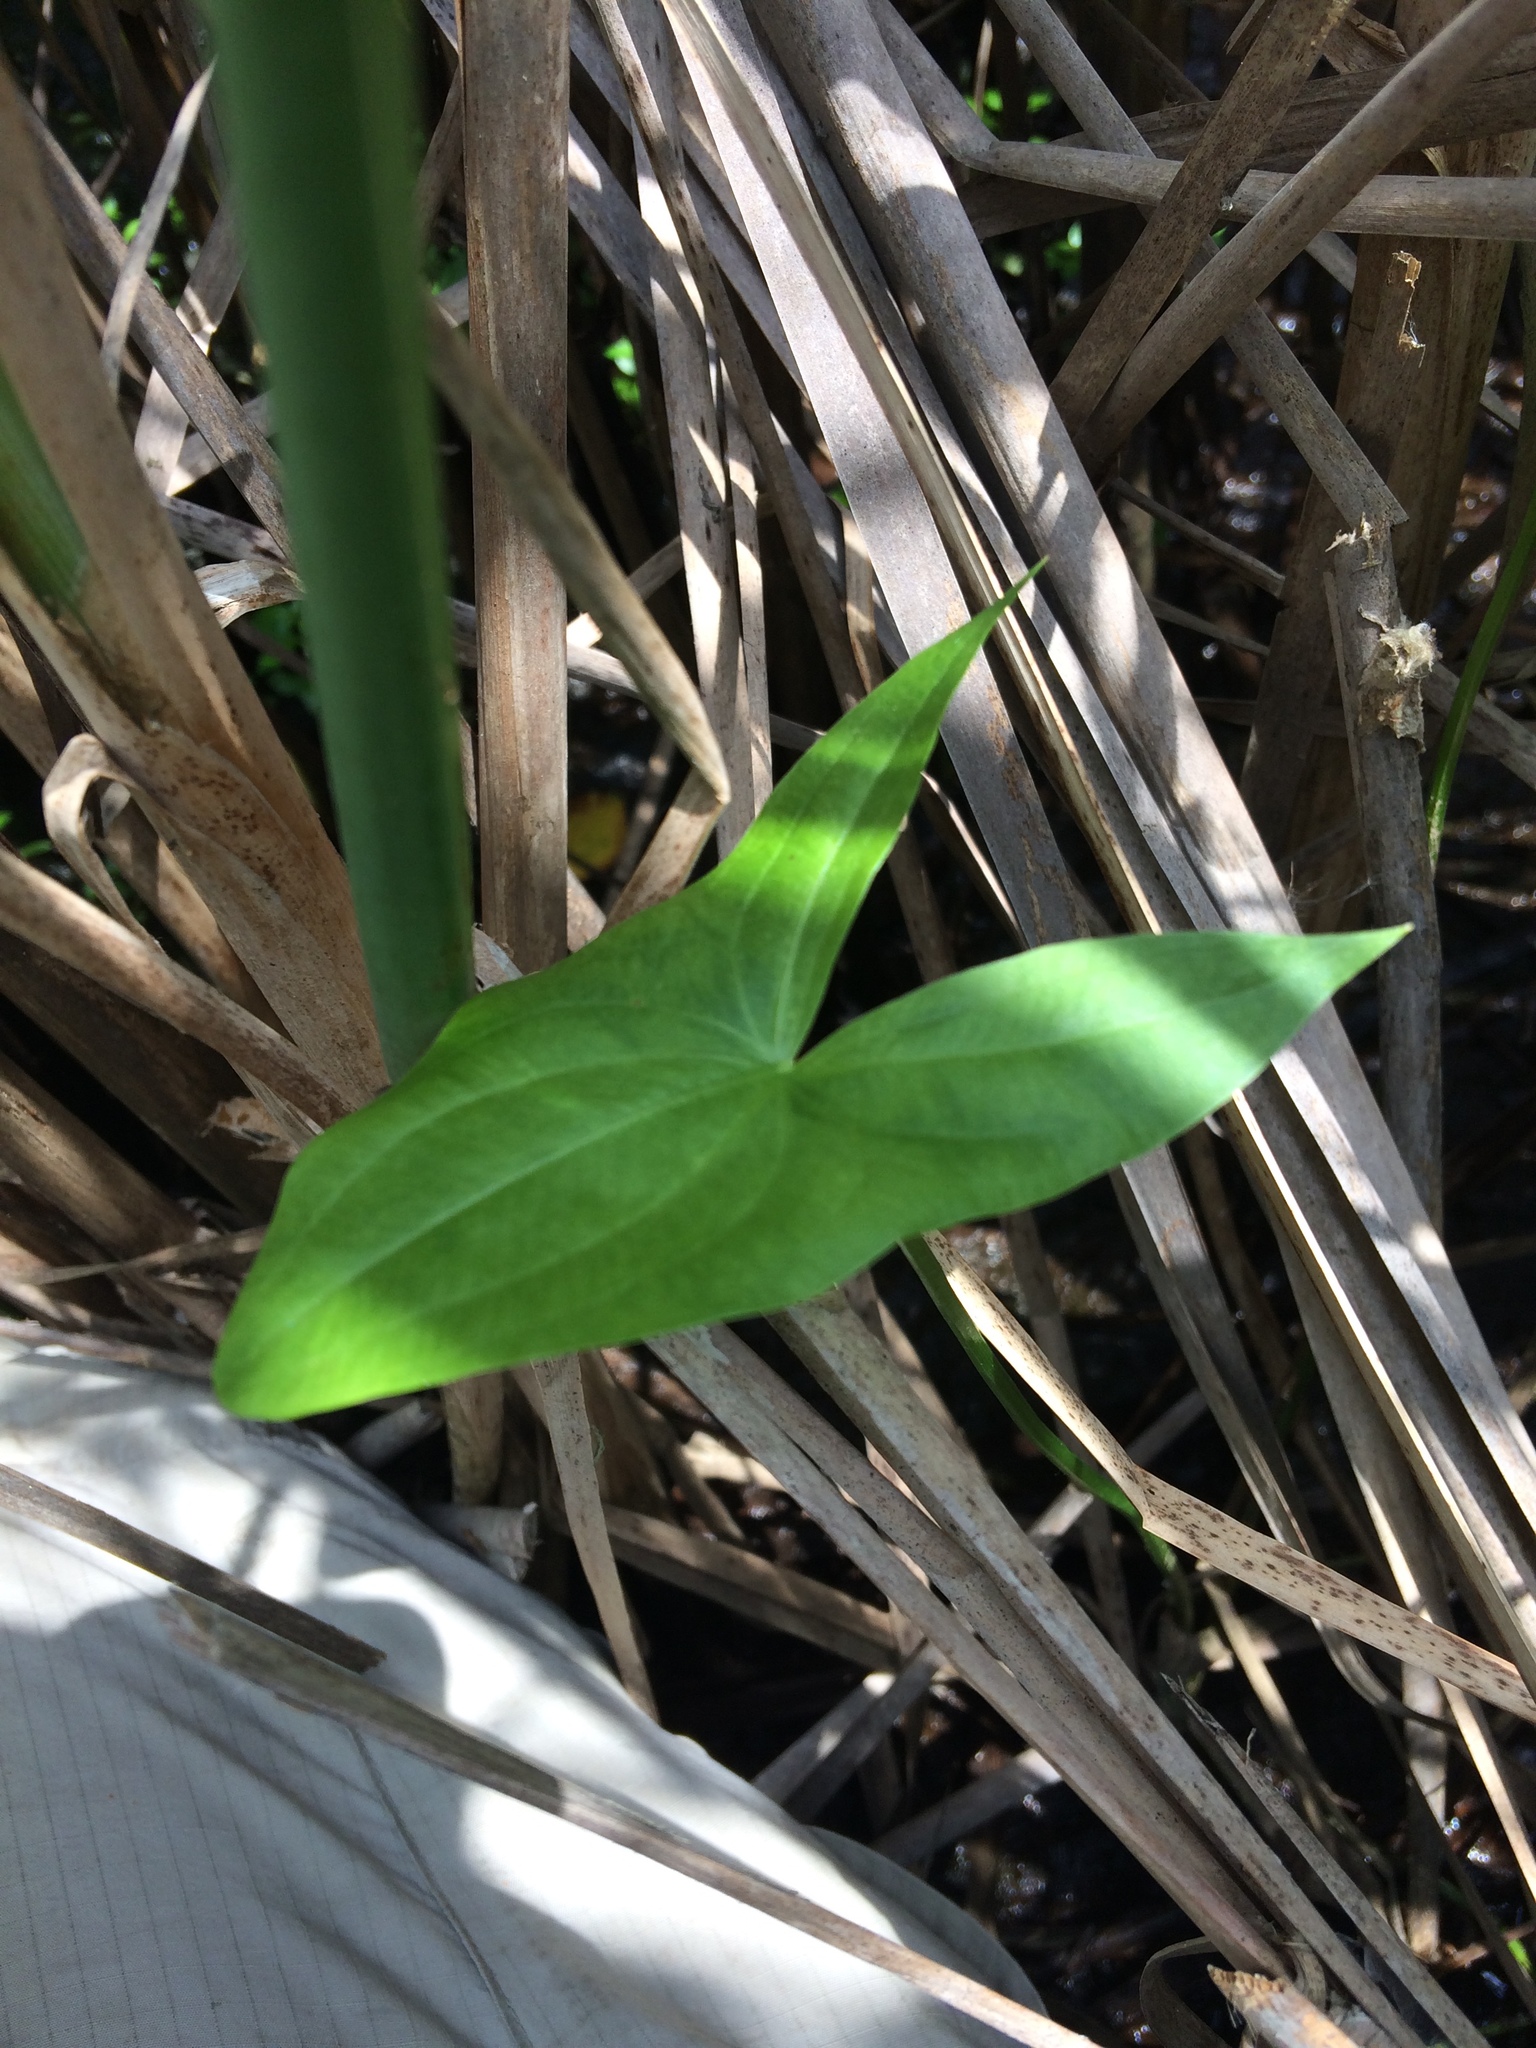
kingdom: Plantae
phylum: Tracheophyta
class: Liliopsida
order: Alismatales
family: Alismataceae
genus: Sagittaria
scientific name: Sagittaria latifolia
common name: Duck-potato
